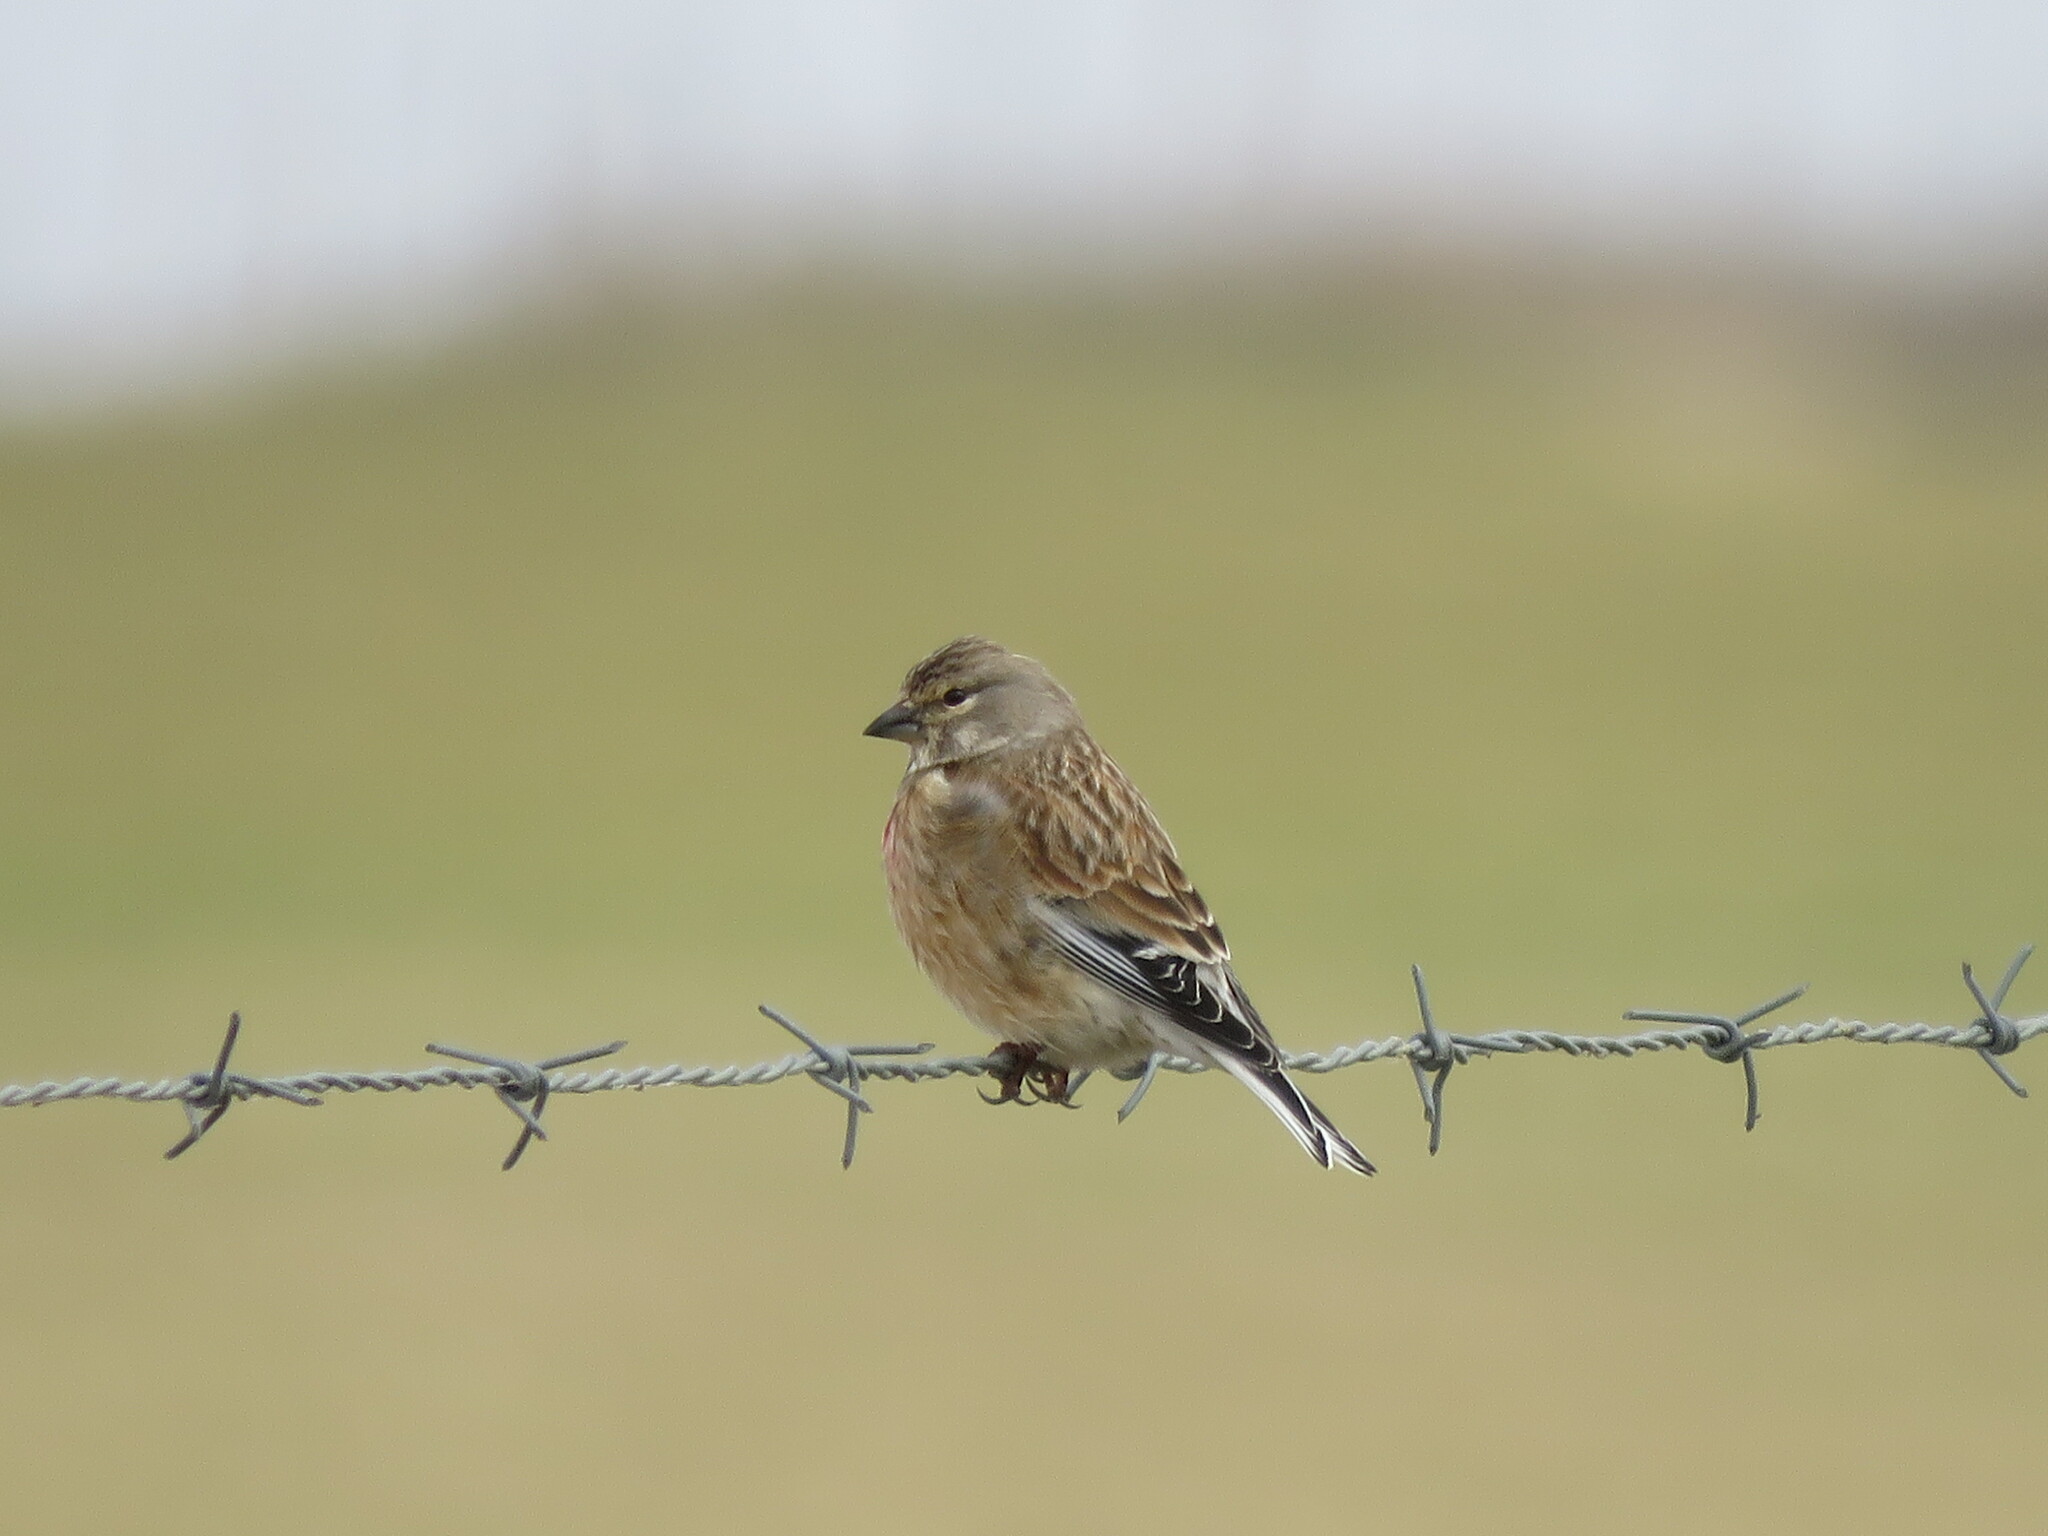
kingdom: Animalia
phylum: Chordata
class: Aves
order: Passeriformes
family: Fringillidae
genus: Linaria
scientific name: Linaria cannabina
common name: Common linnet
